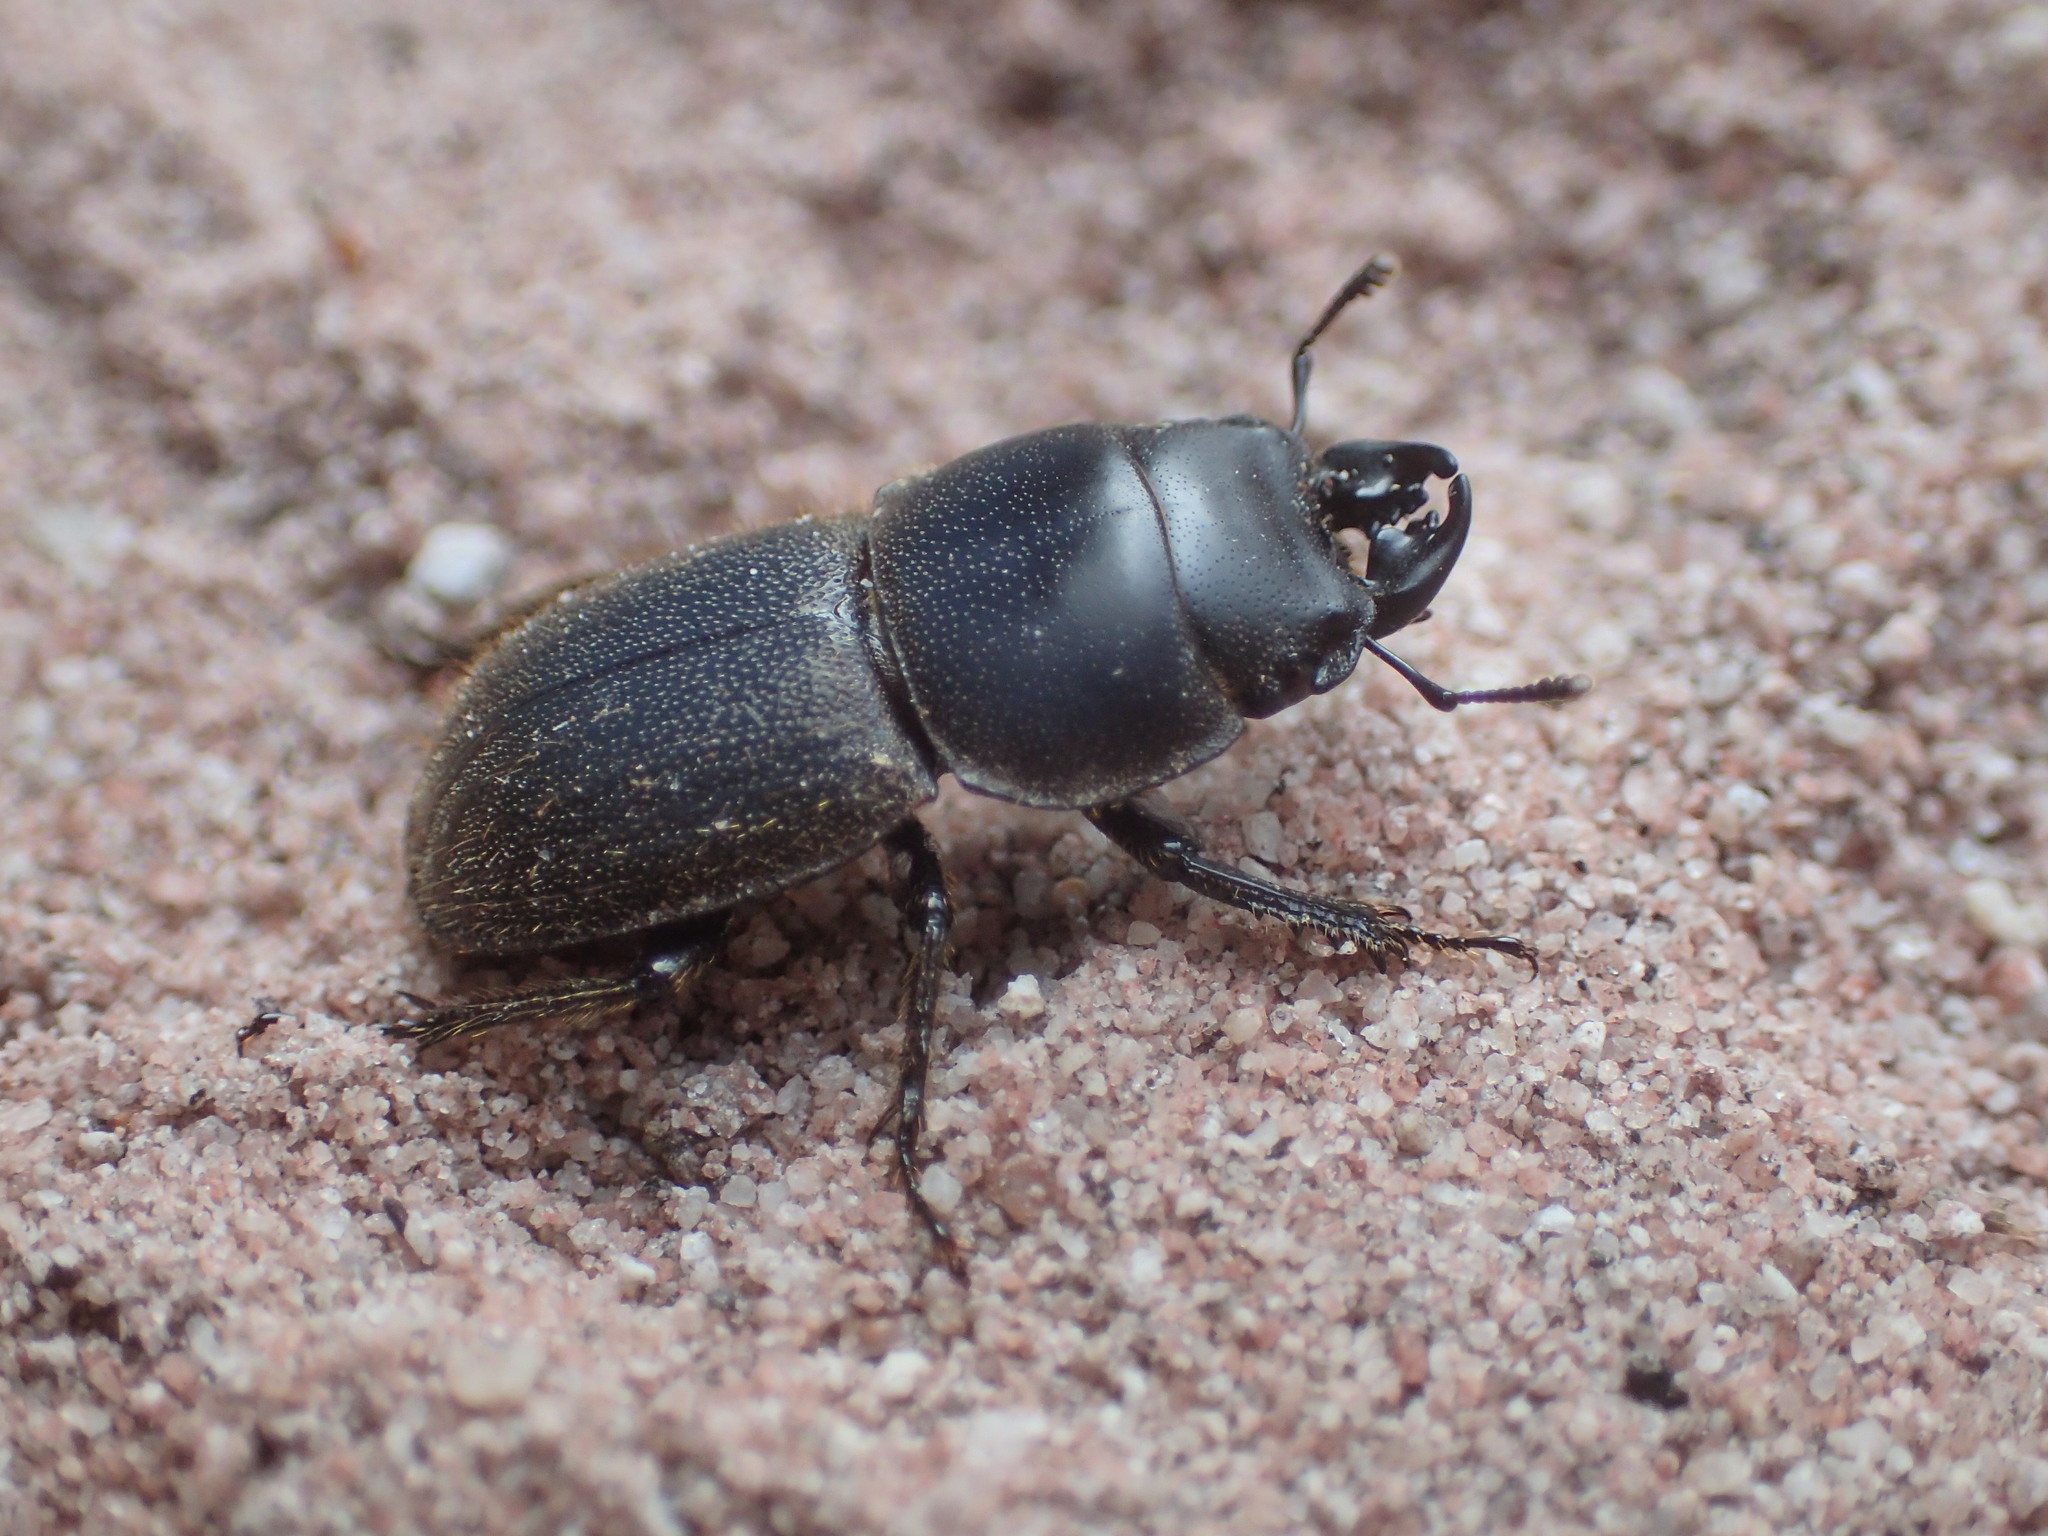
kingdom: Animalia
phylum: Arthropoda
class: Insecta
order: Coleoptera
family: Lucanidae
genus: Lissotes
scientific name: Lissotes cancroides
